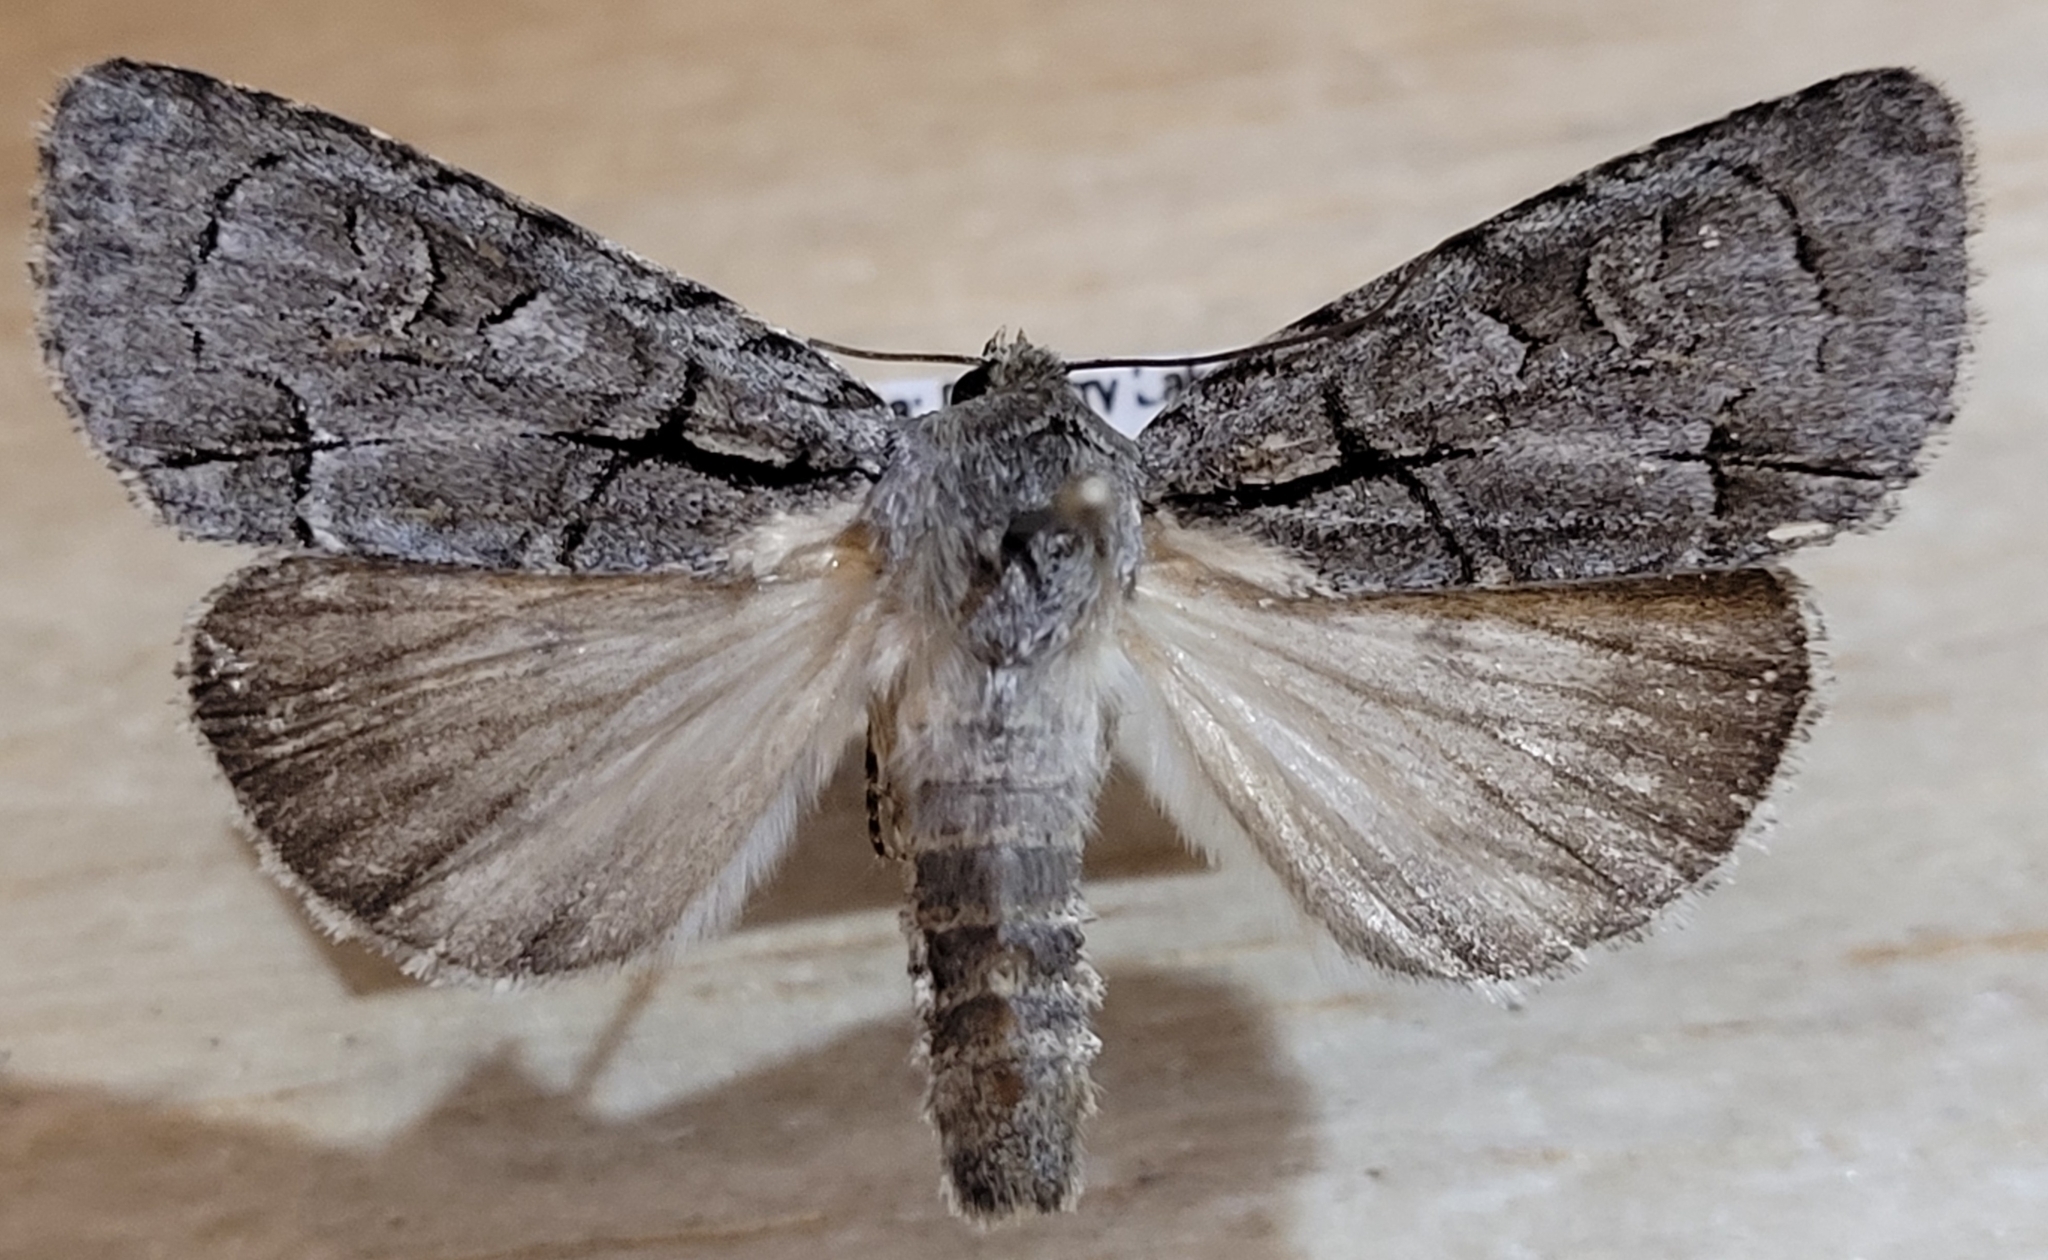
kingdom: Animalia
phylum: Arthropoda
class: Insecta
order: Lepidoptera
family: Noctuidae
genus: Acronicta
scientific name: Acronicta radcliffei
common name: Radcliffe's dagger
